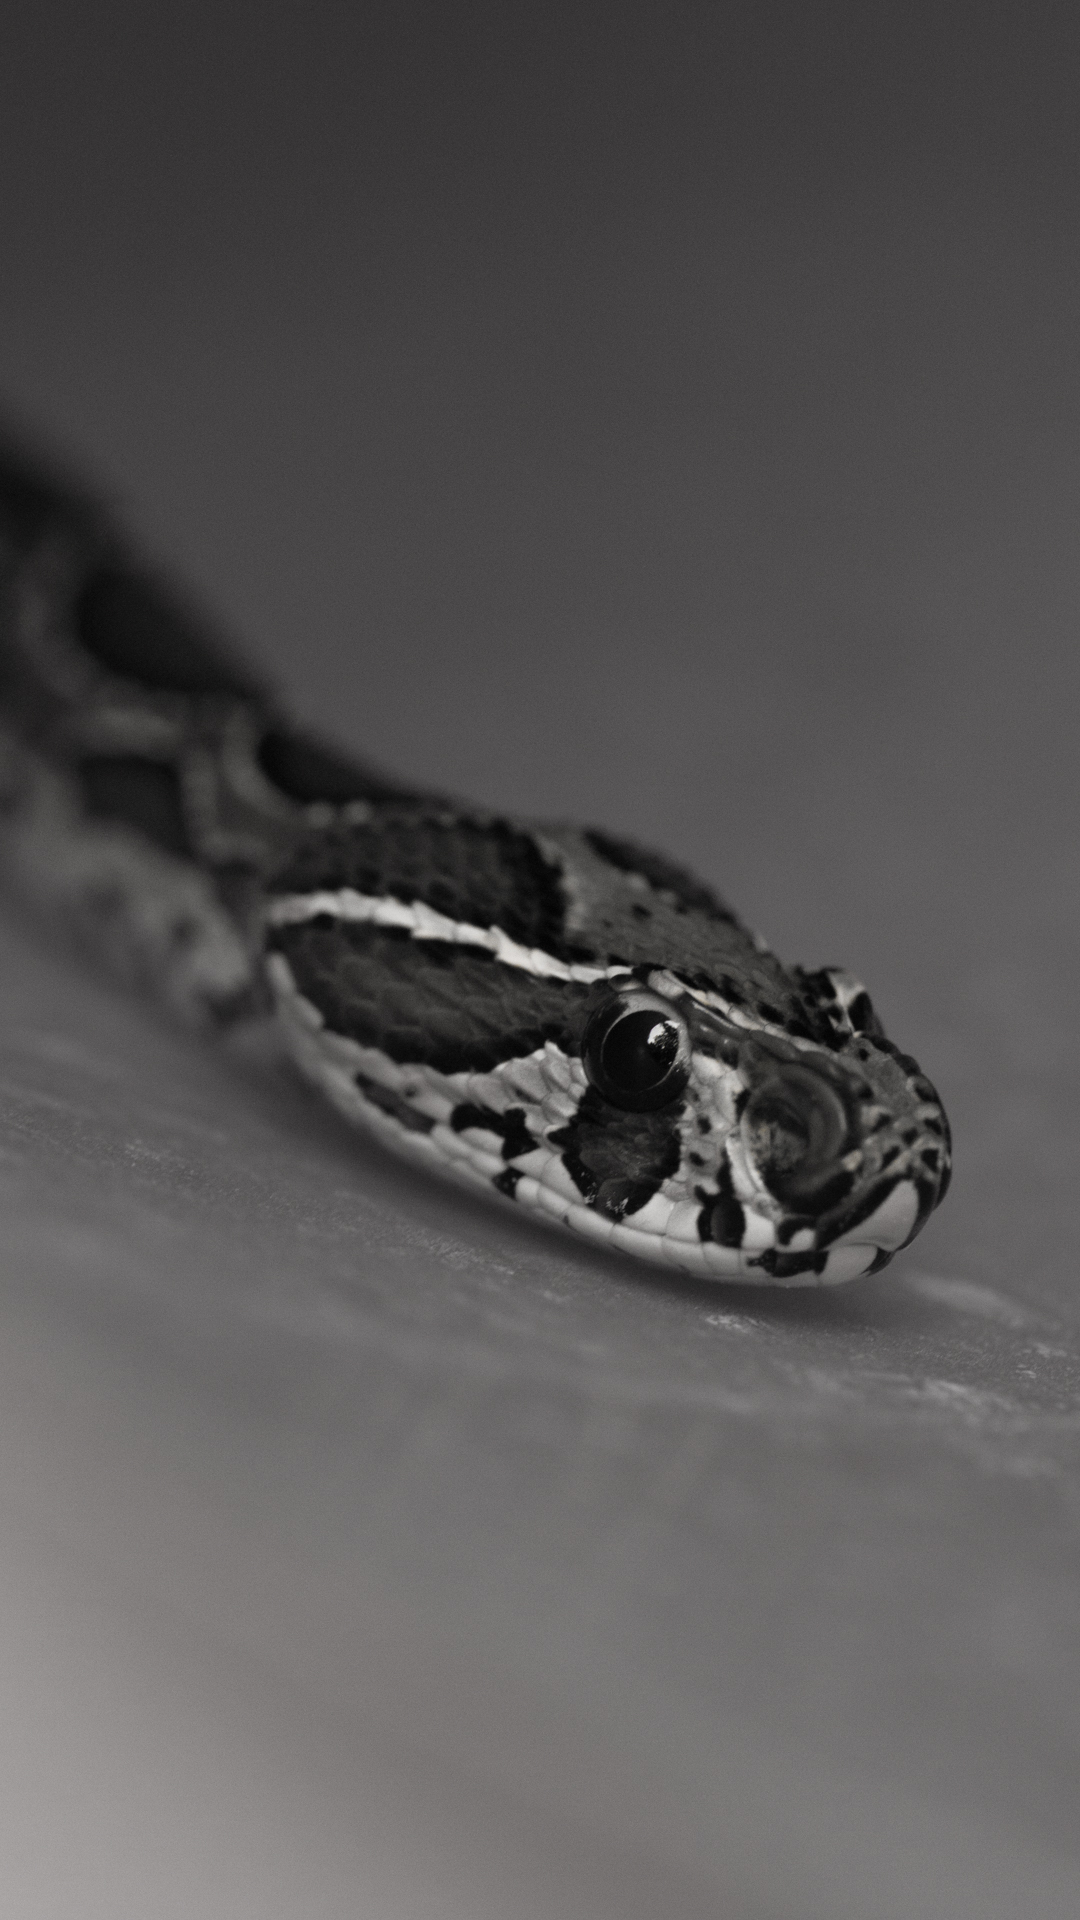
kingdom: Animalia
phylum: Chordata
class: Squamata
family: Viperidae
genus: Daboia
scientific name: Daboia russelii
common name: Western russel’s viper
